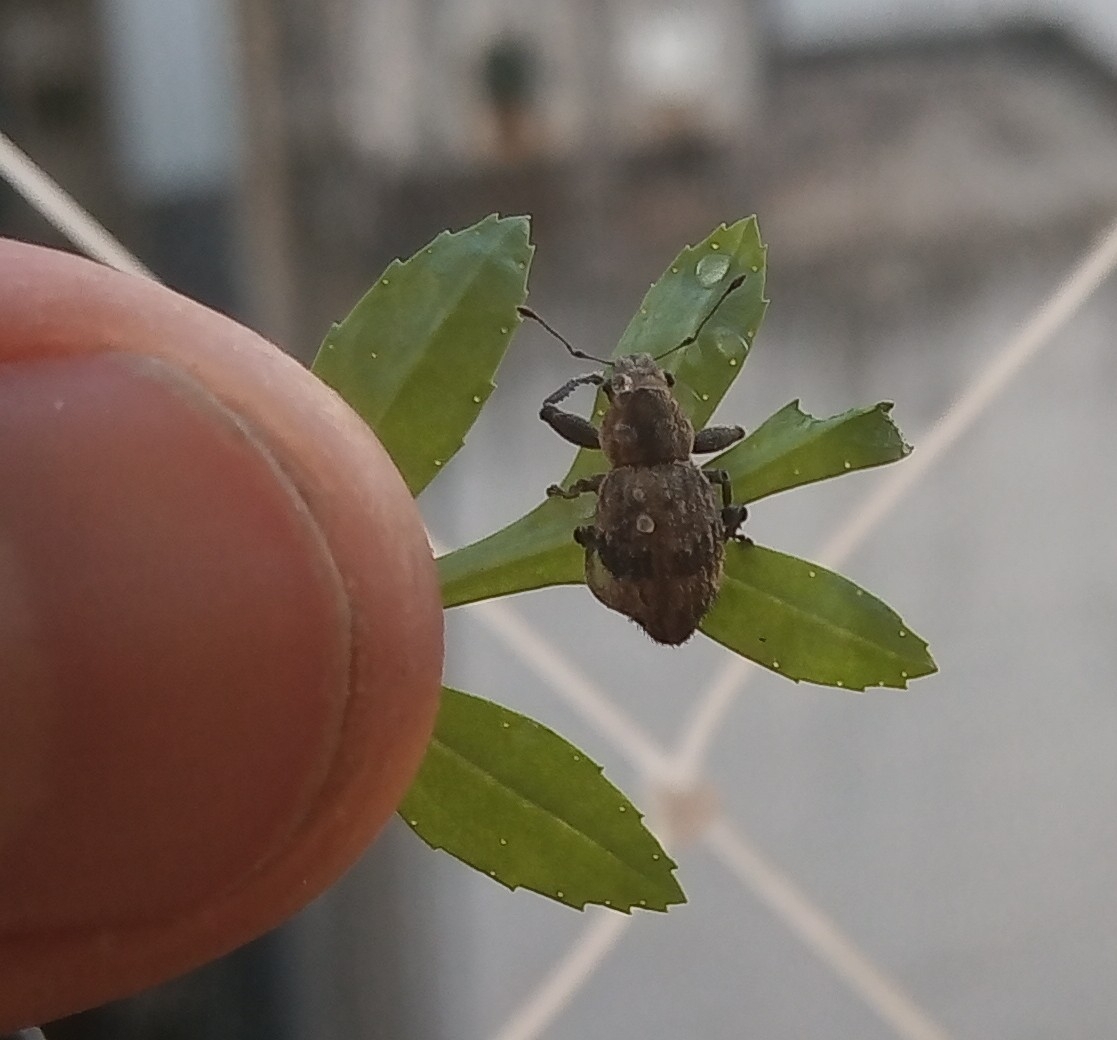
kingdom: Animalia
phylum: Arthropoda
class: Insecta
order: Coleoptera
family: Curculionidae
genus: Pantomorus
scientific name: Pantomorus
